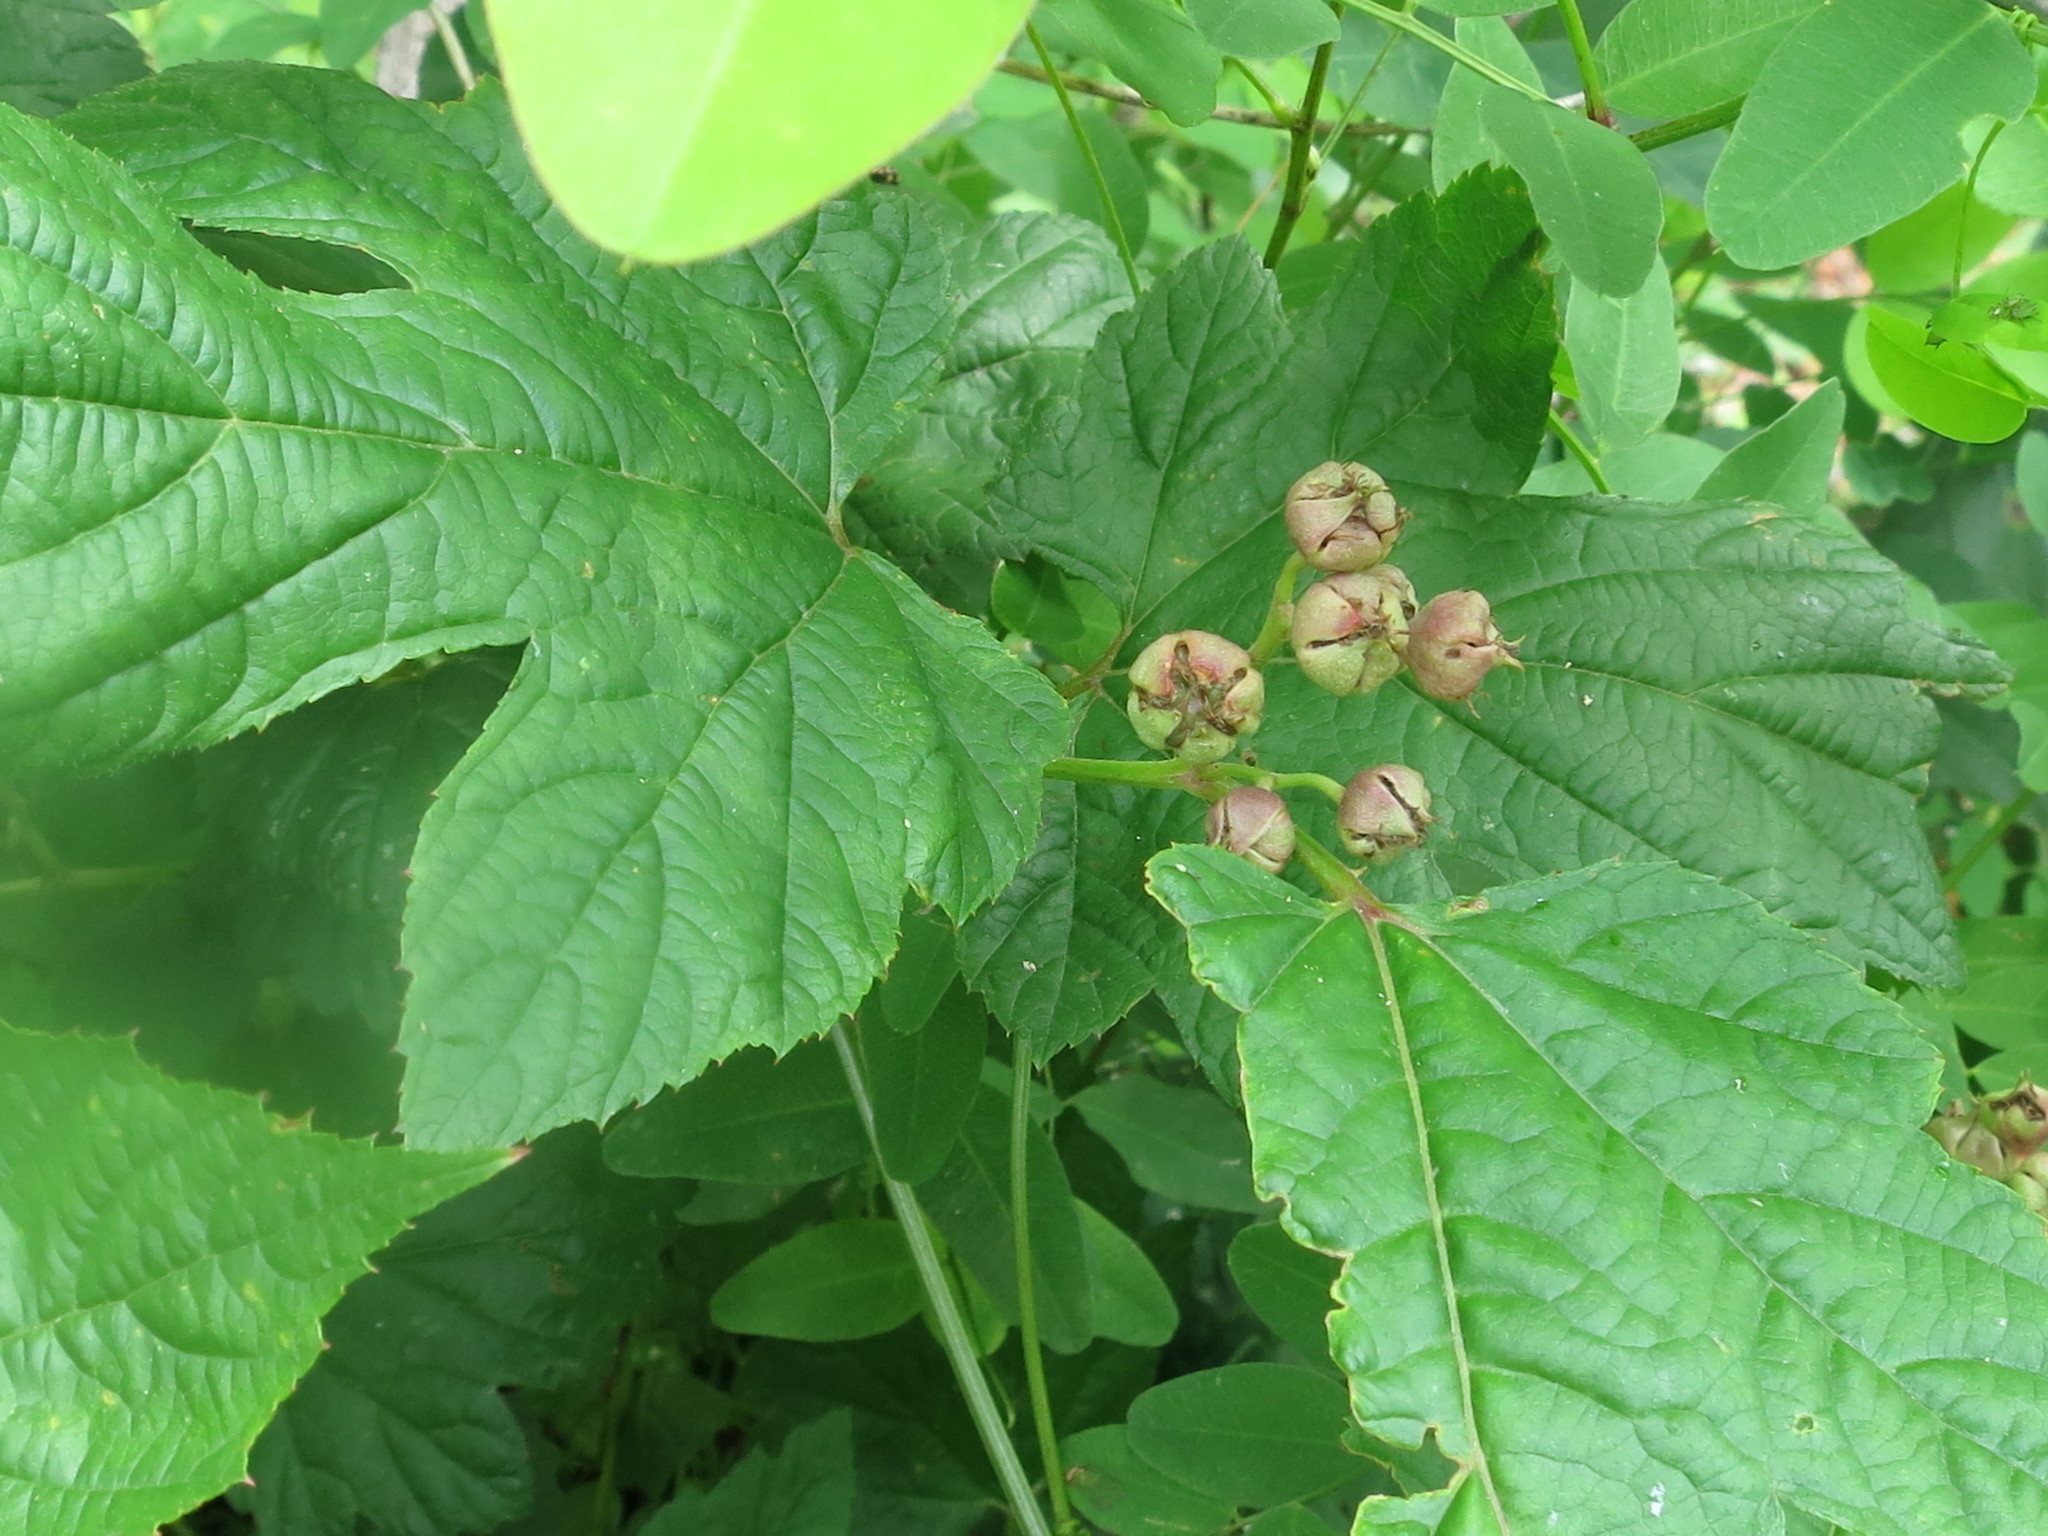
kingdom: Plantae
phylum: Tracheophyta
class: Magnoliopsida
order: Rosales
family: Rosaceae
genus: Rubus
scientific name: Rubus crataegifolius
